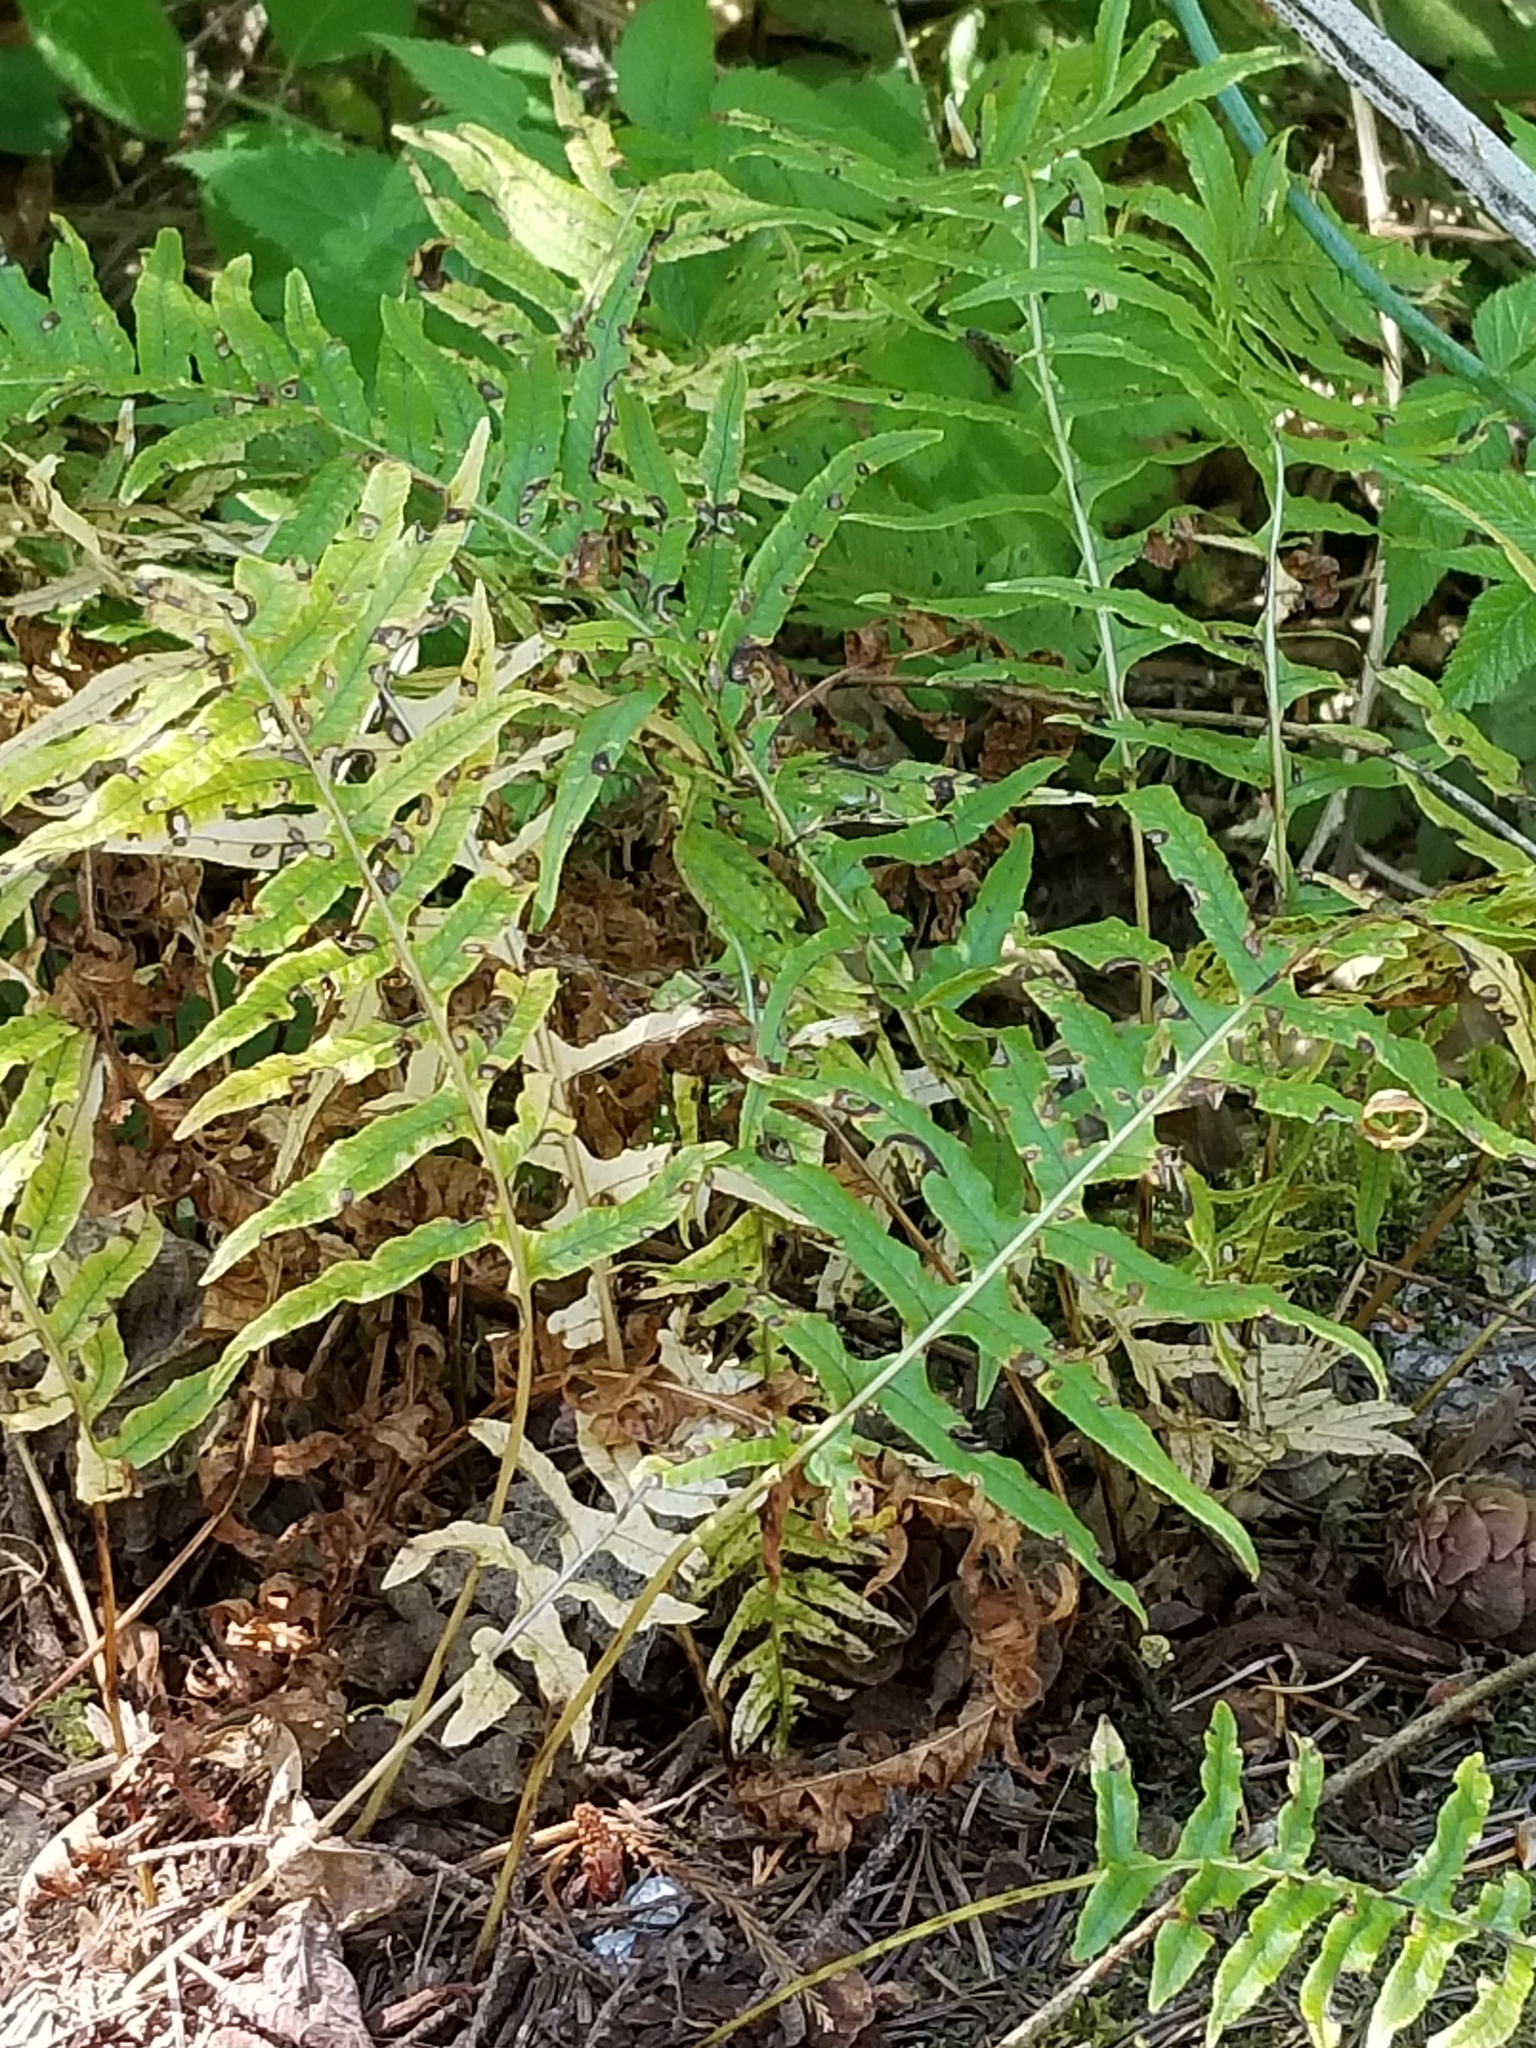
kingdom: Plantae
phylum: Tracheophyta
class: Polypodiopsida
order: Polypodiales
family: Polypodiaceae
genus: Polypodium
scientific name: Polypodium glycyrrhiza
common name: Licorice fern
